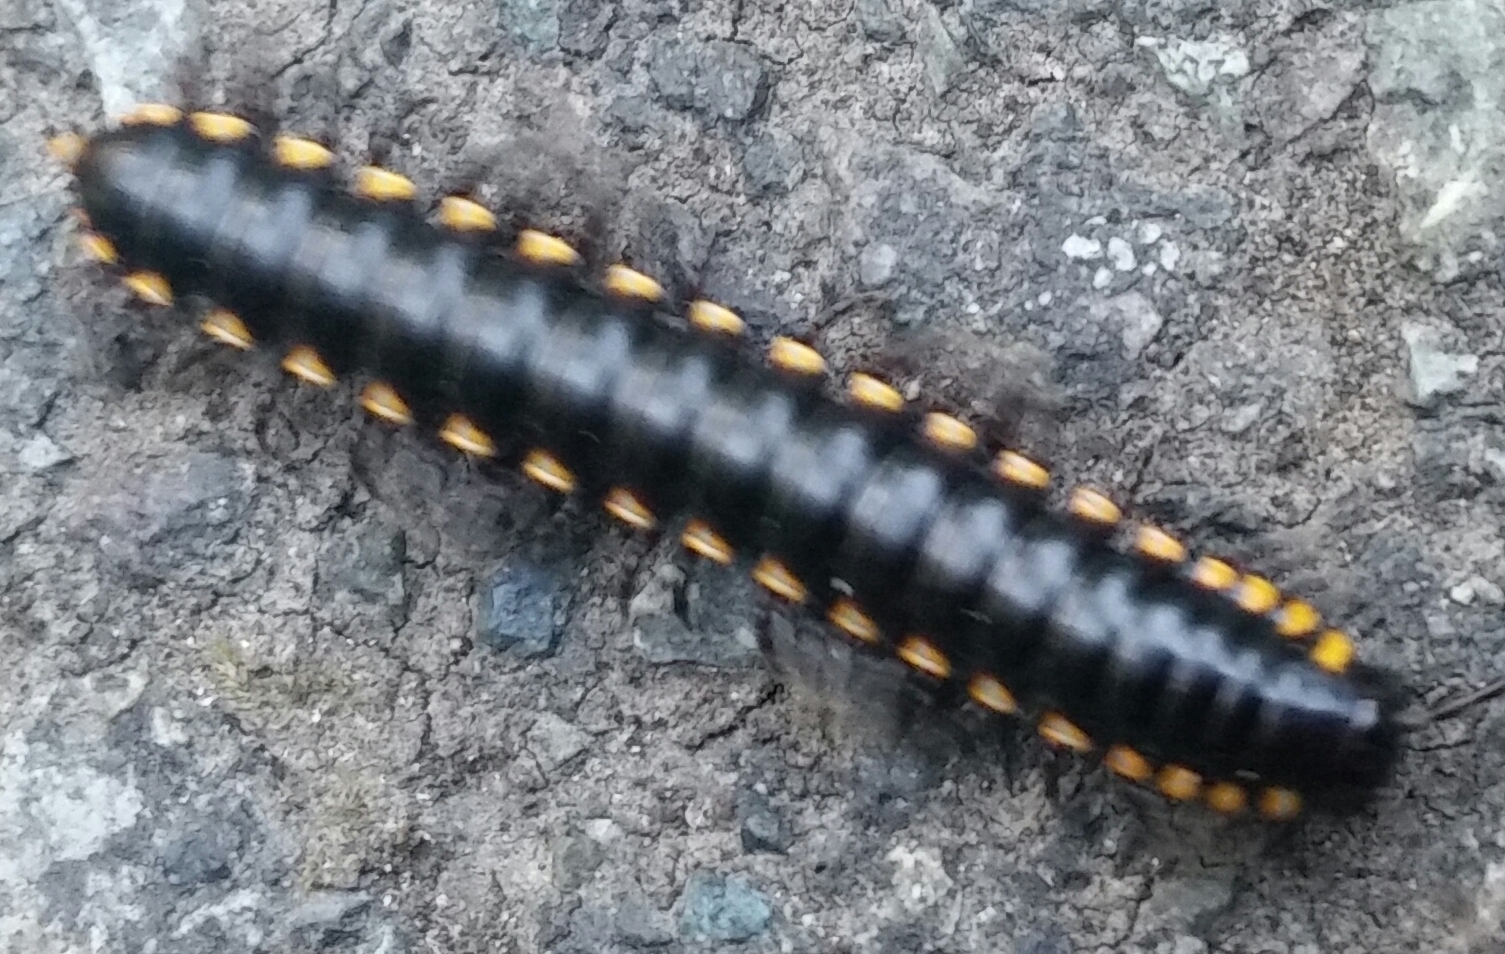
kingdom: Animalia
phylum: Arthropoda
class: Diplopoda
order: Polydesmida
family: Xystodesmidae
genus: Harpaphe
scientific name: Harpaphe haydeniana
